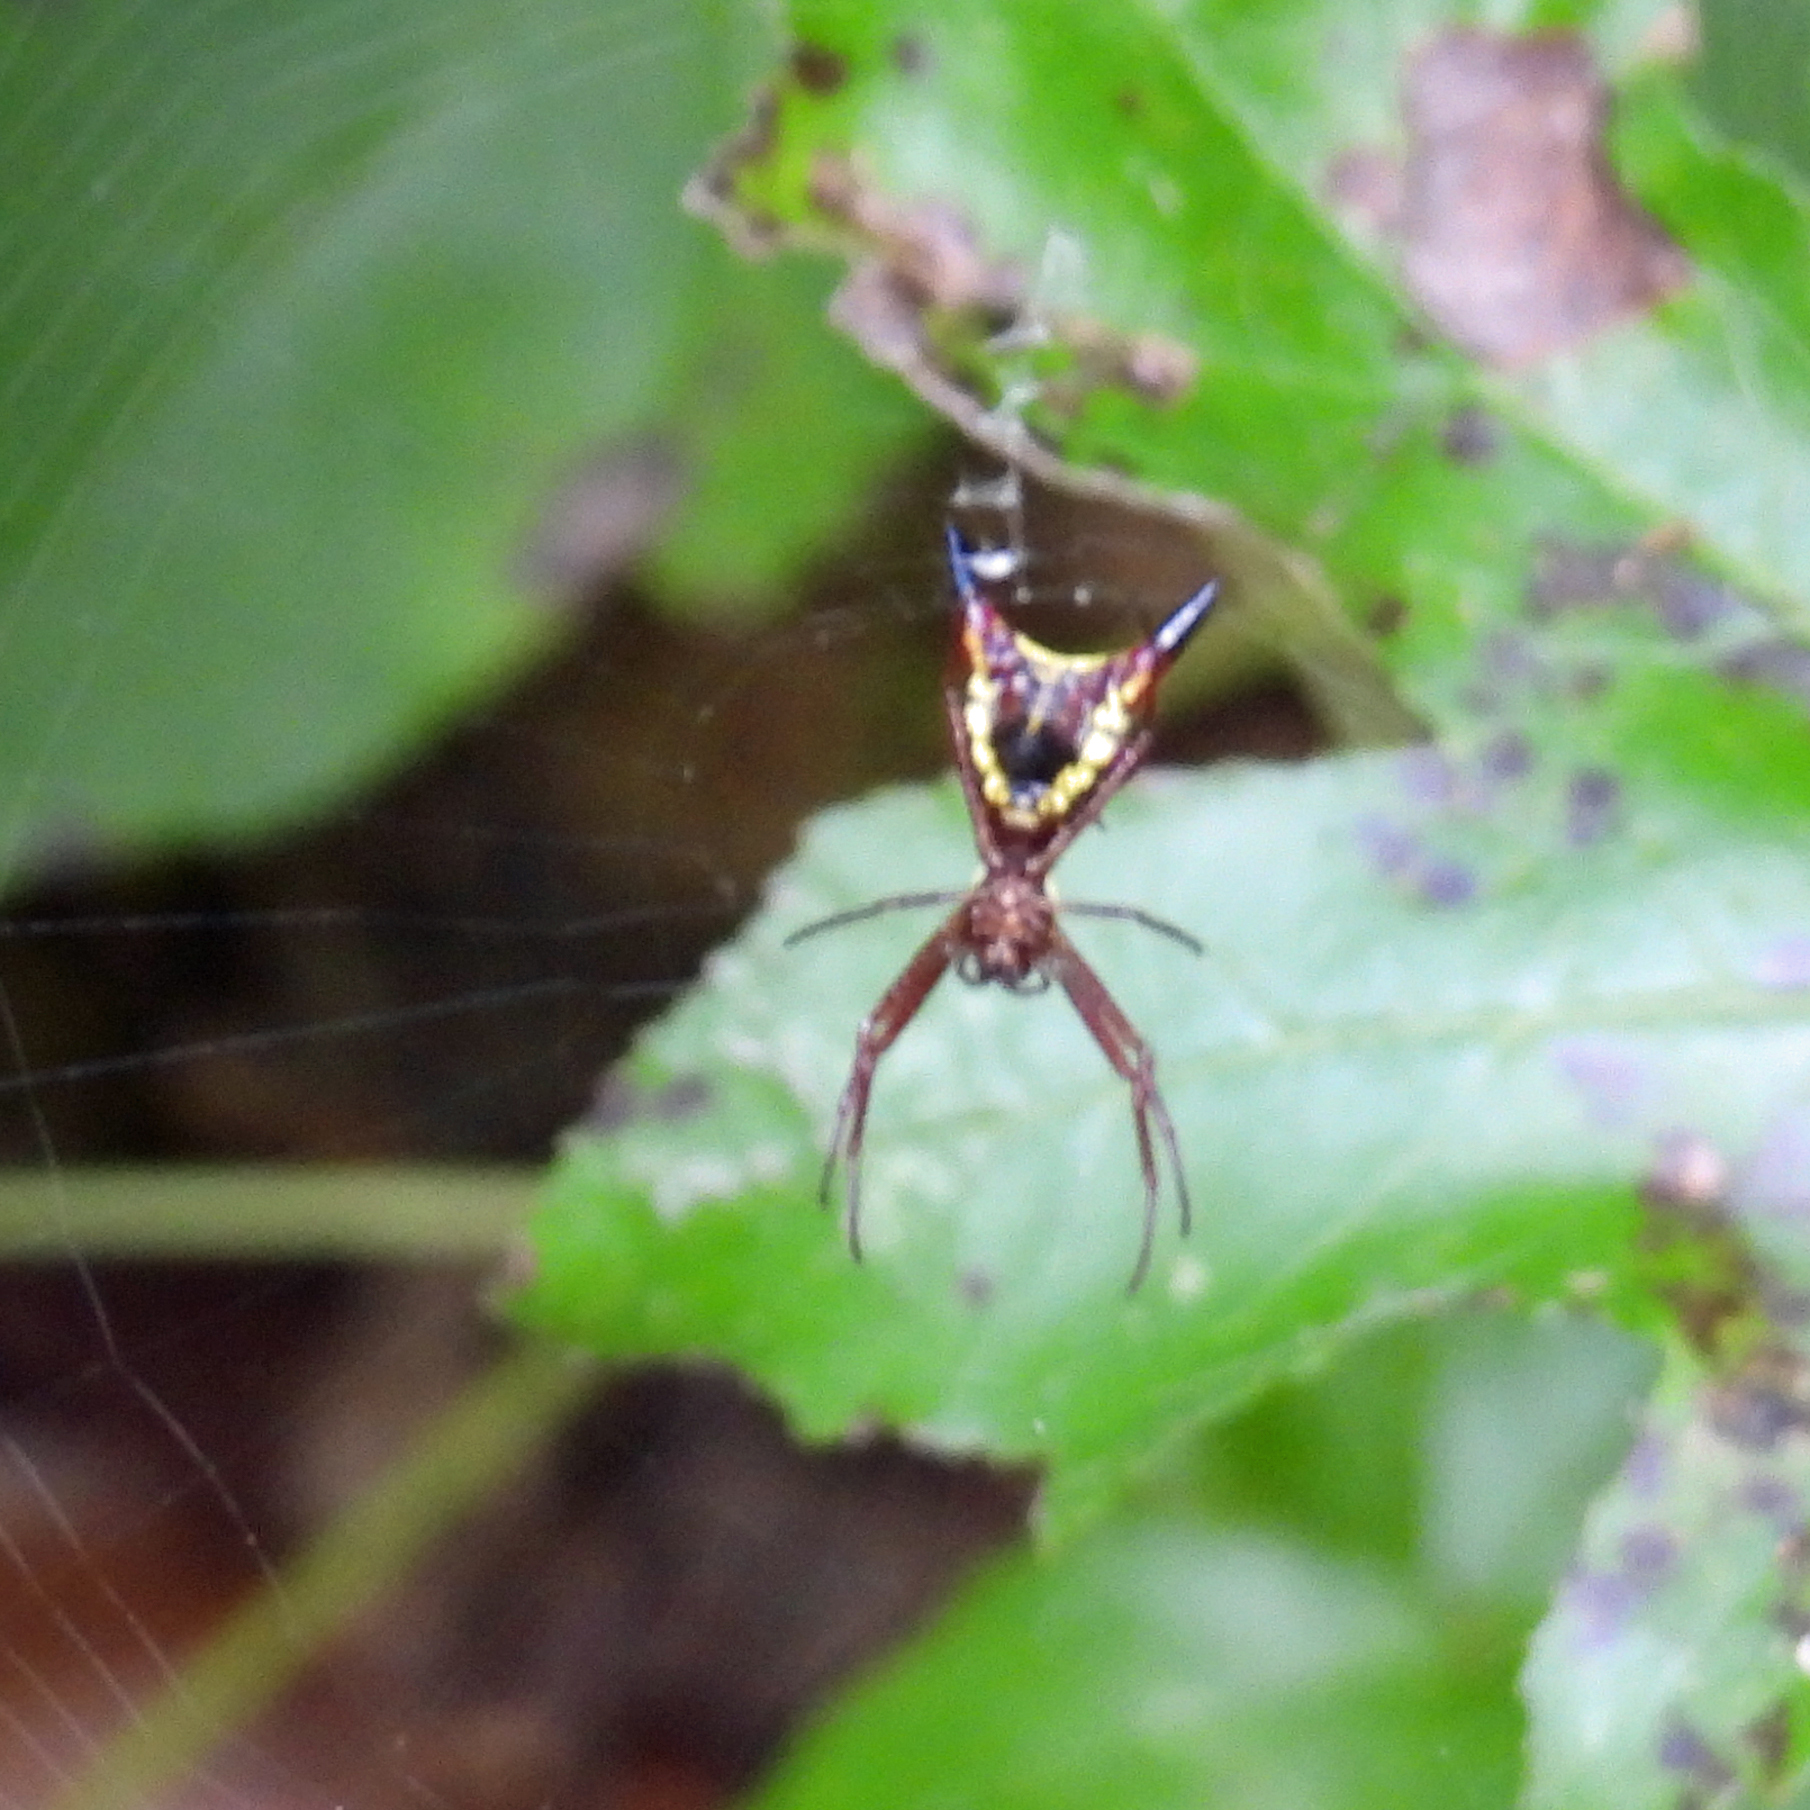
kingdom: Animalia
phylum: Arthropoda
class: Arachnida
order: Araneae
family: Araneidae
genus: Micrathena
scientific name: Micrathena sagittata
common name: Orb weavers
